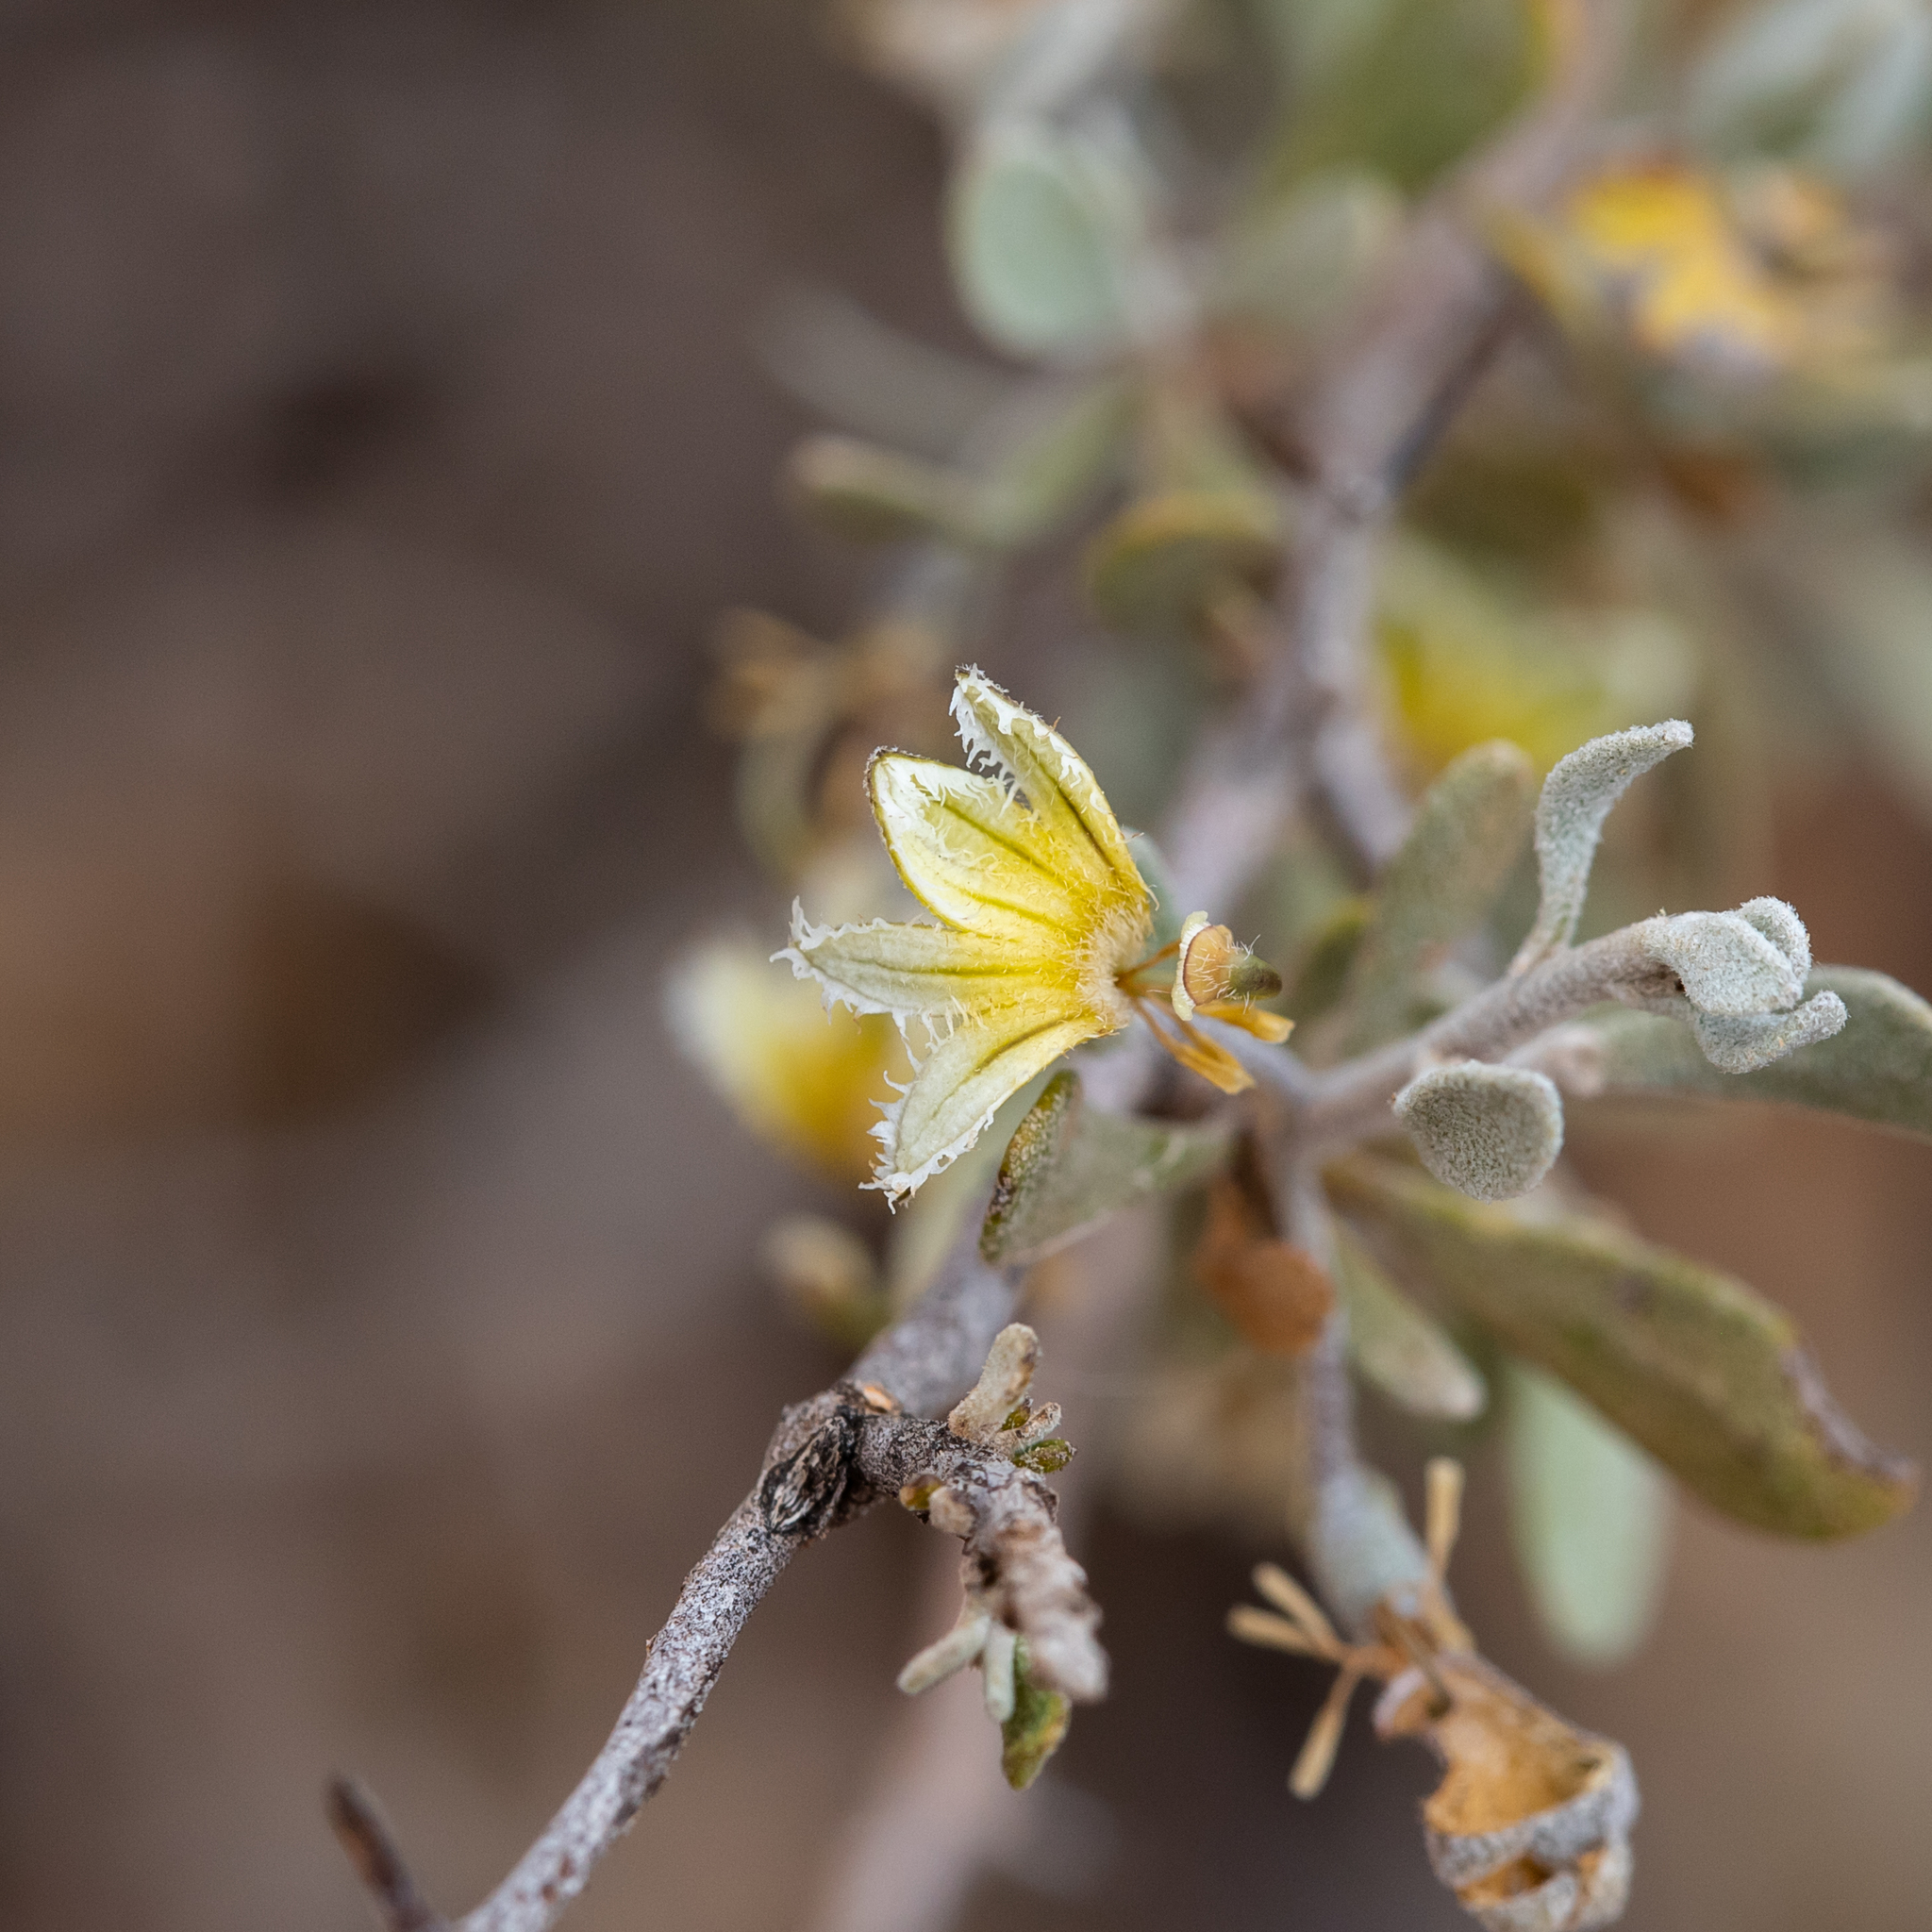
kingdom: Plantae
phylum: Tracheophyta
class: Magnoliopsida
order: Asterales
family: Goodeniaceae
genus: Scaevola
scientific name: Scaevola spinescens
